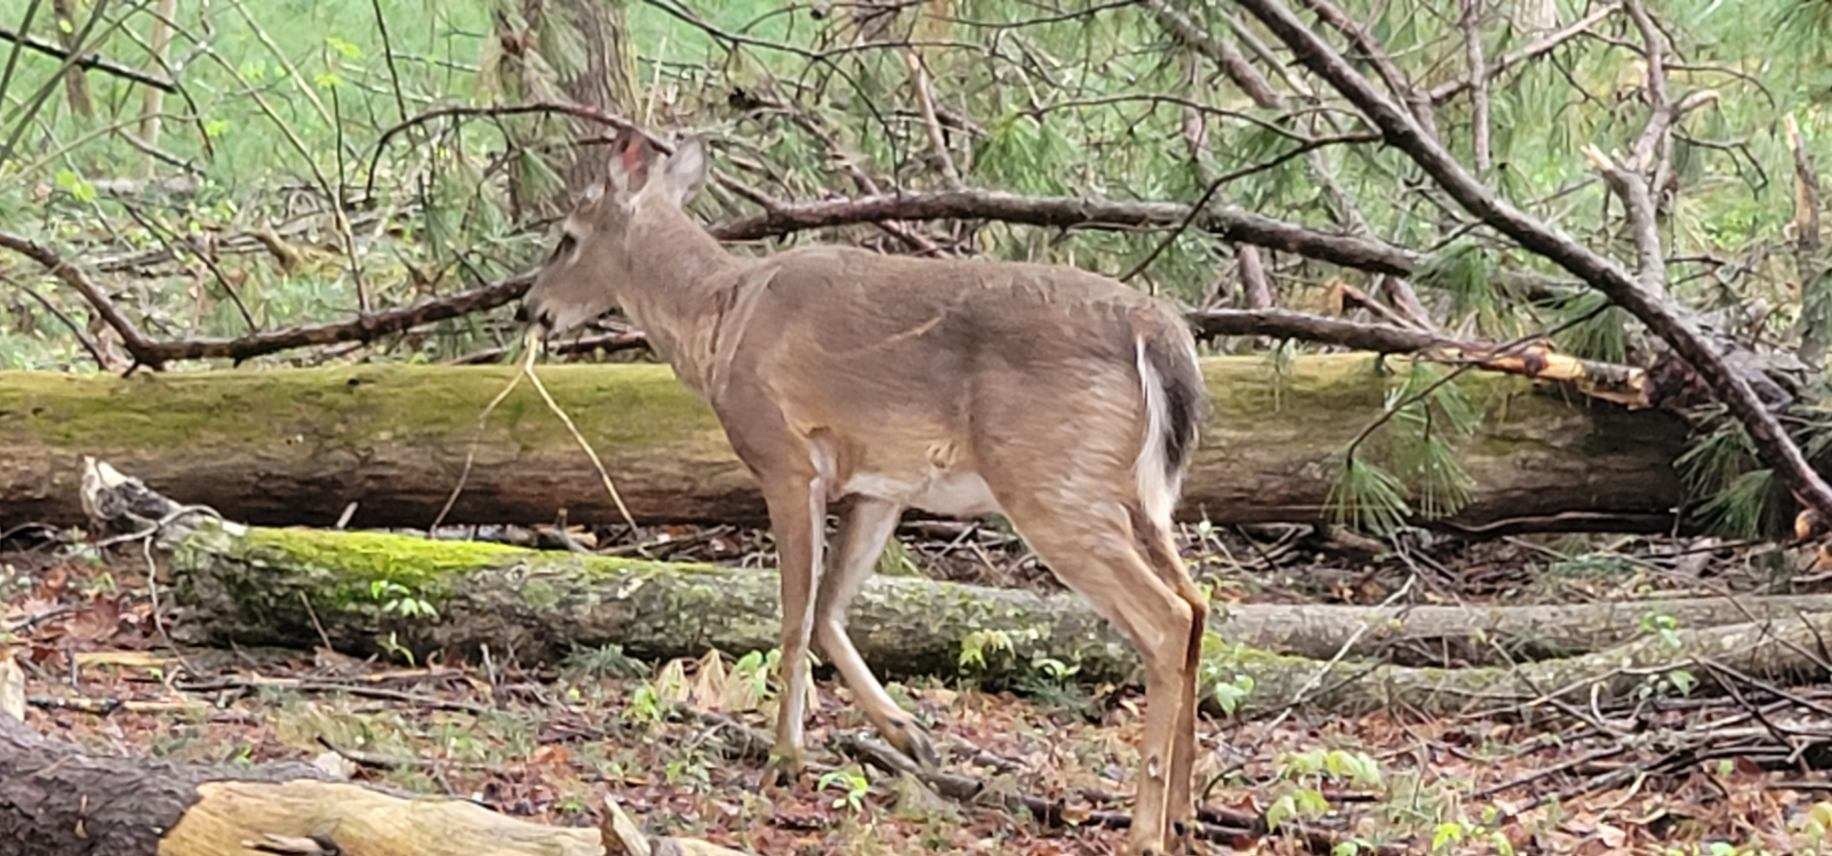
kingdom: Animalia
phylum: Chordata
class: Mammalia
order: Artiodactyla
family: Cervidae
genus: Odocoileus
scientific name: Odocoileus virginianus
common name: White-tailed deer
